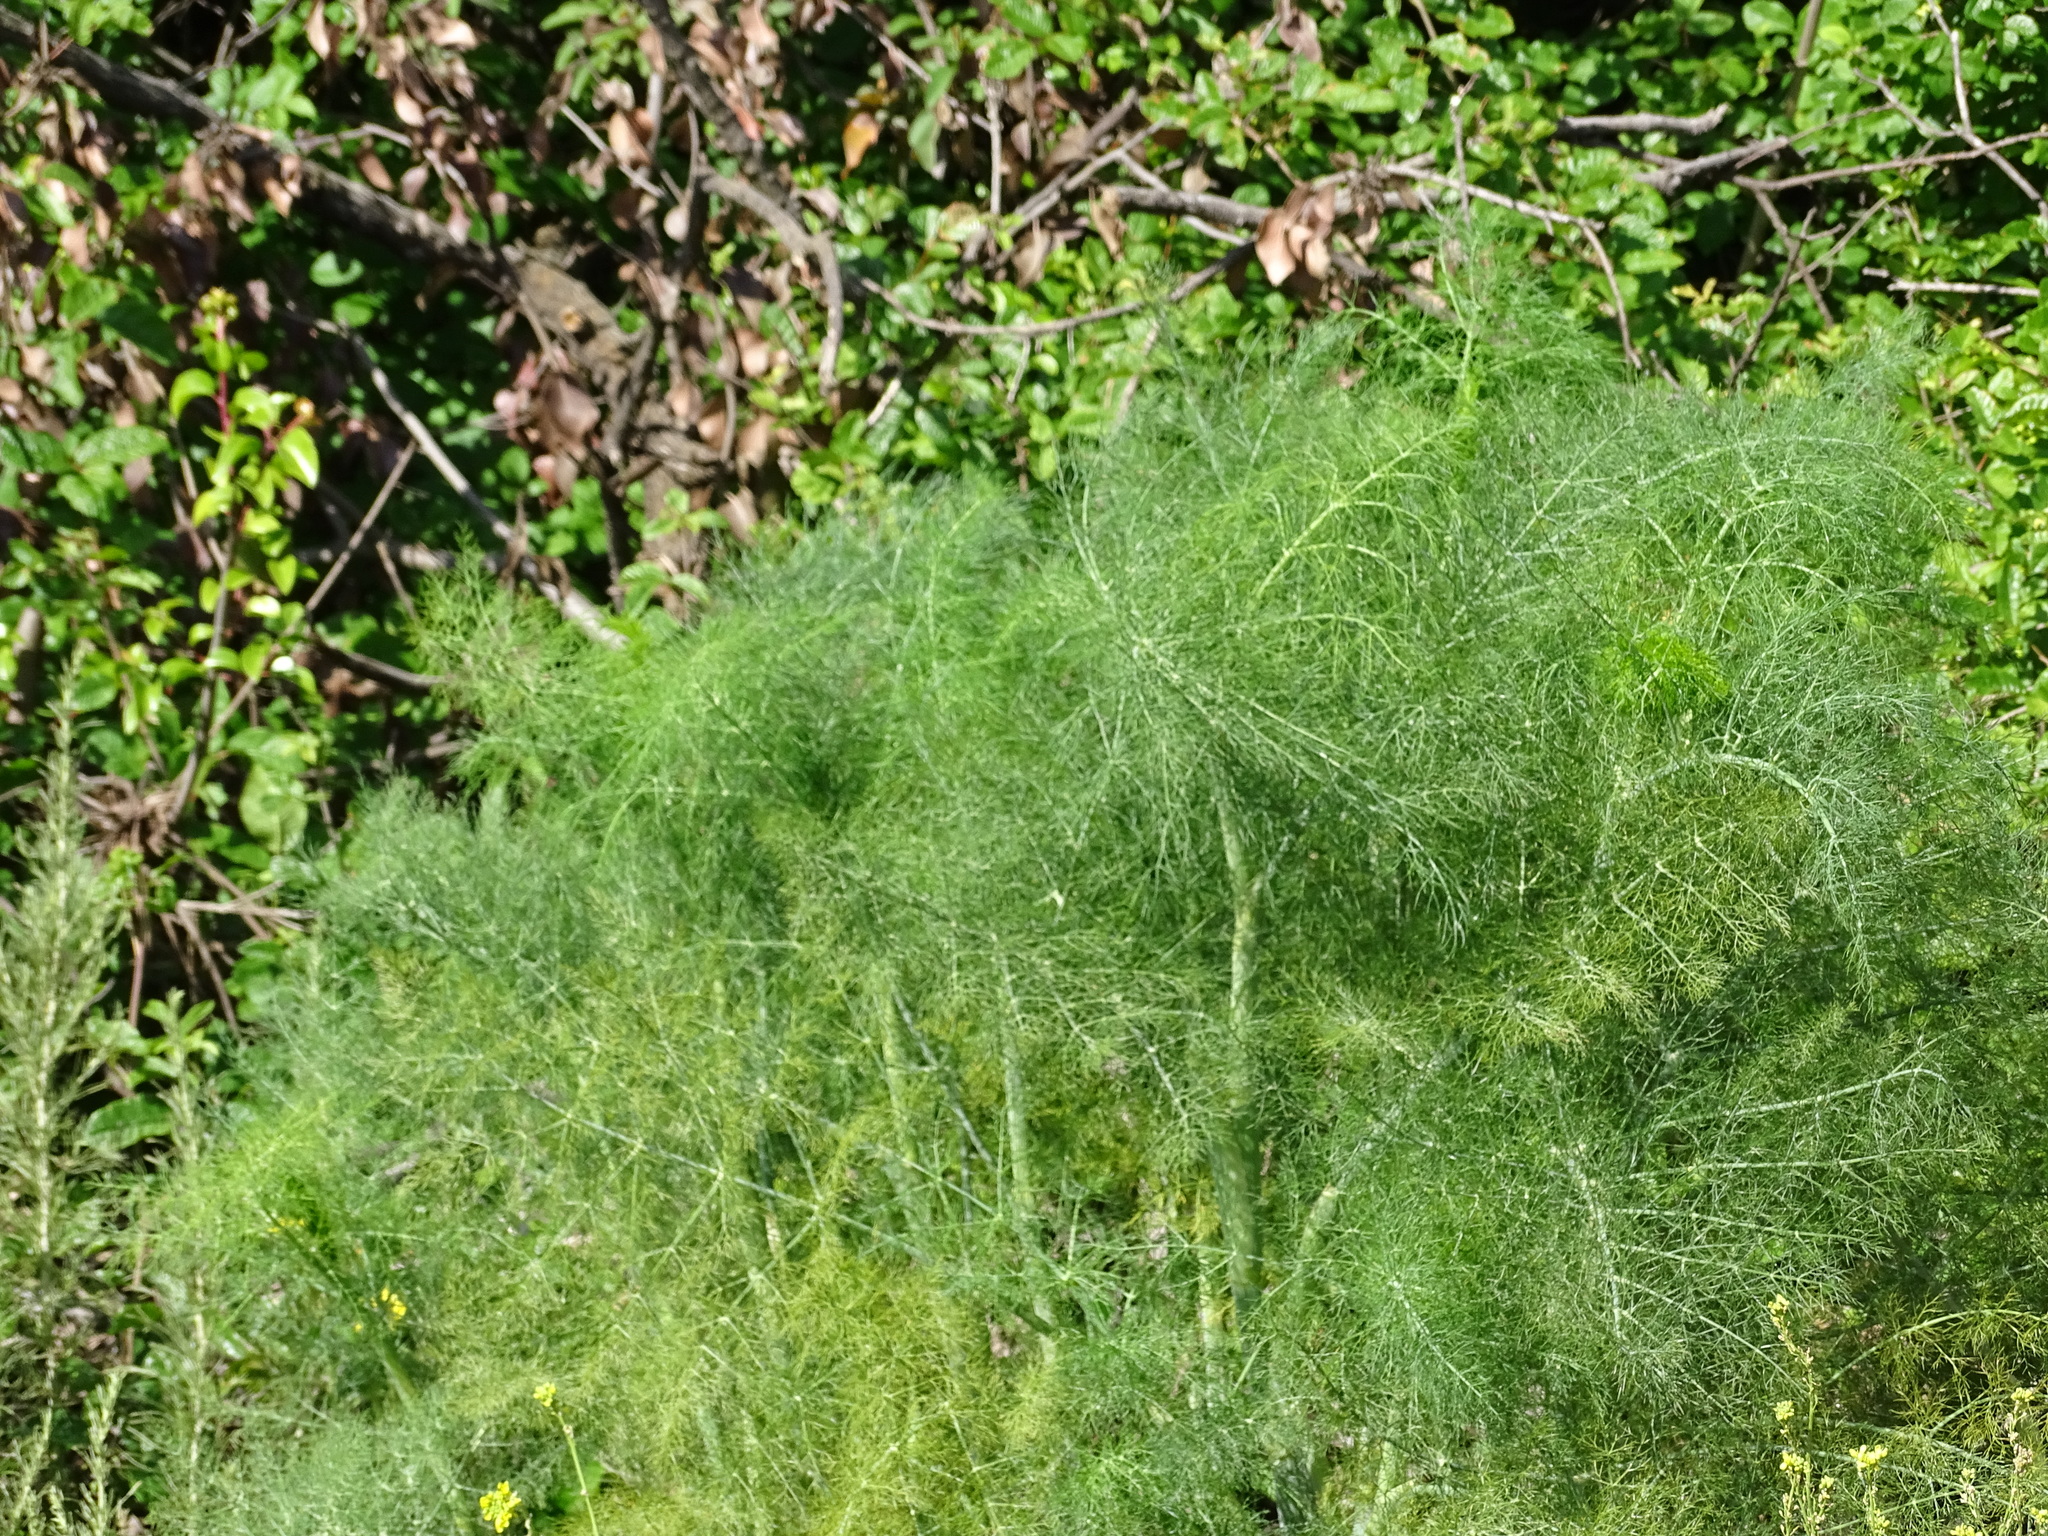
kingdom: Plantae
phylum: Tracheophyta
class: Magnoliopsida
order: Apiales
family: Apiaceae
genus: Foeniculum
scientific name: Foeniculum vulgare
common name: Fennel
